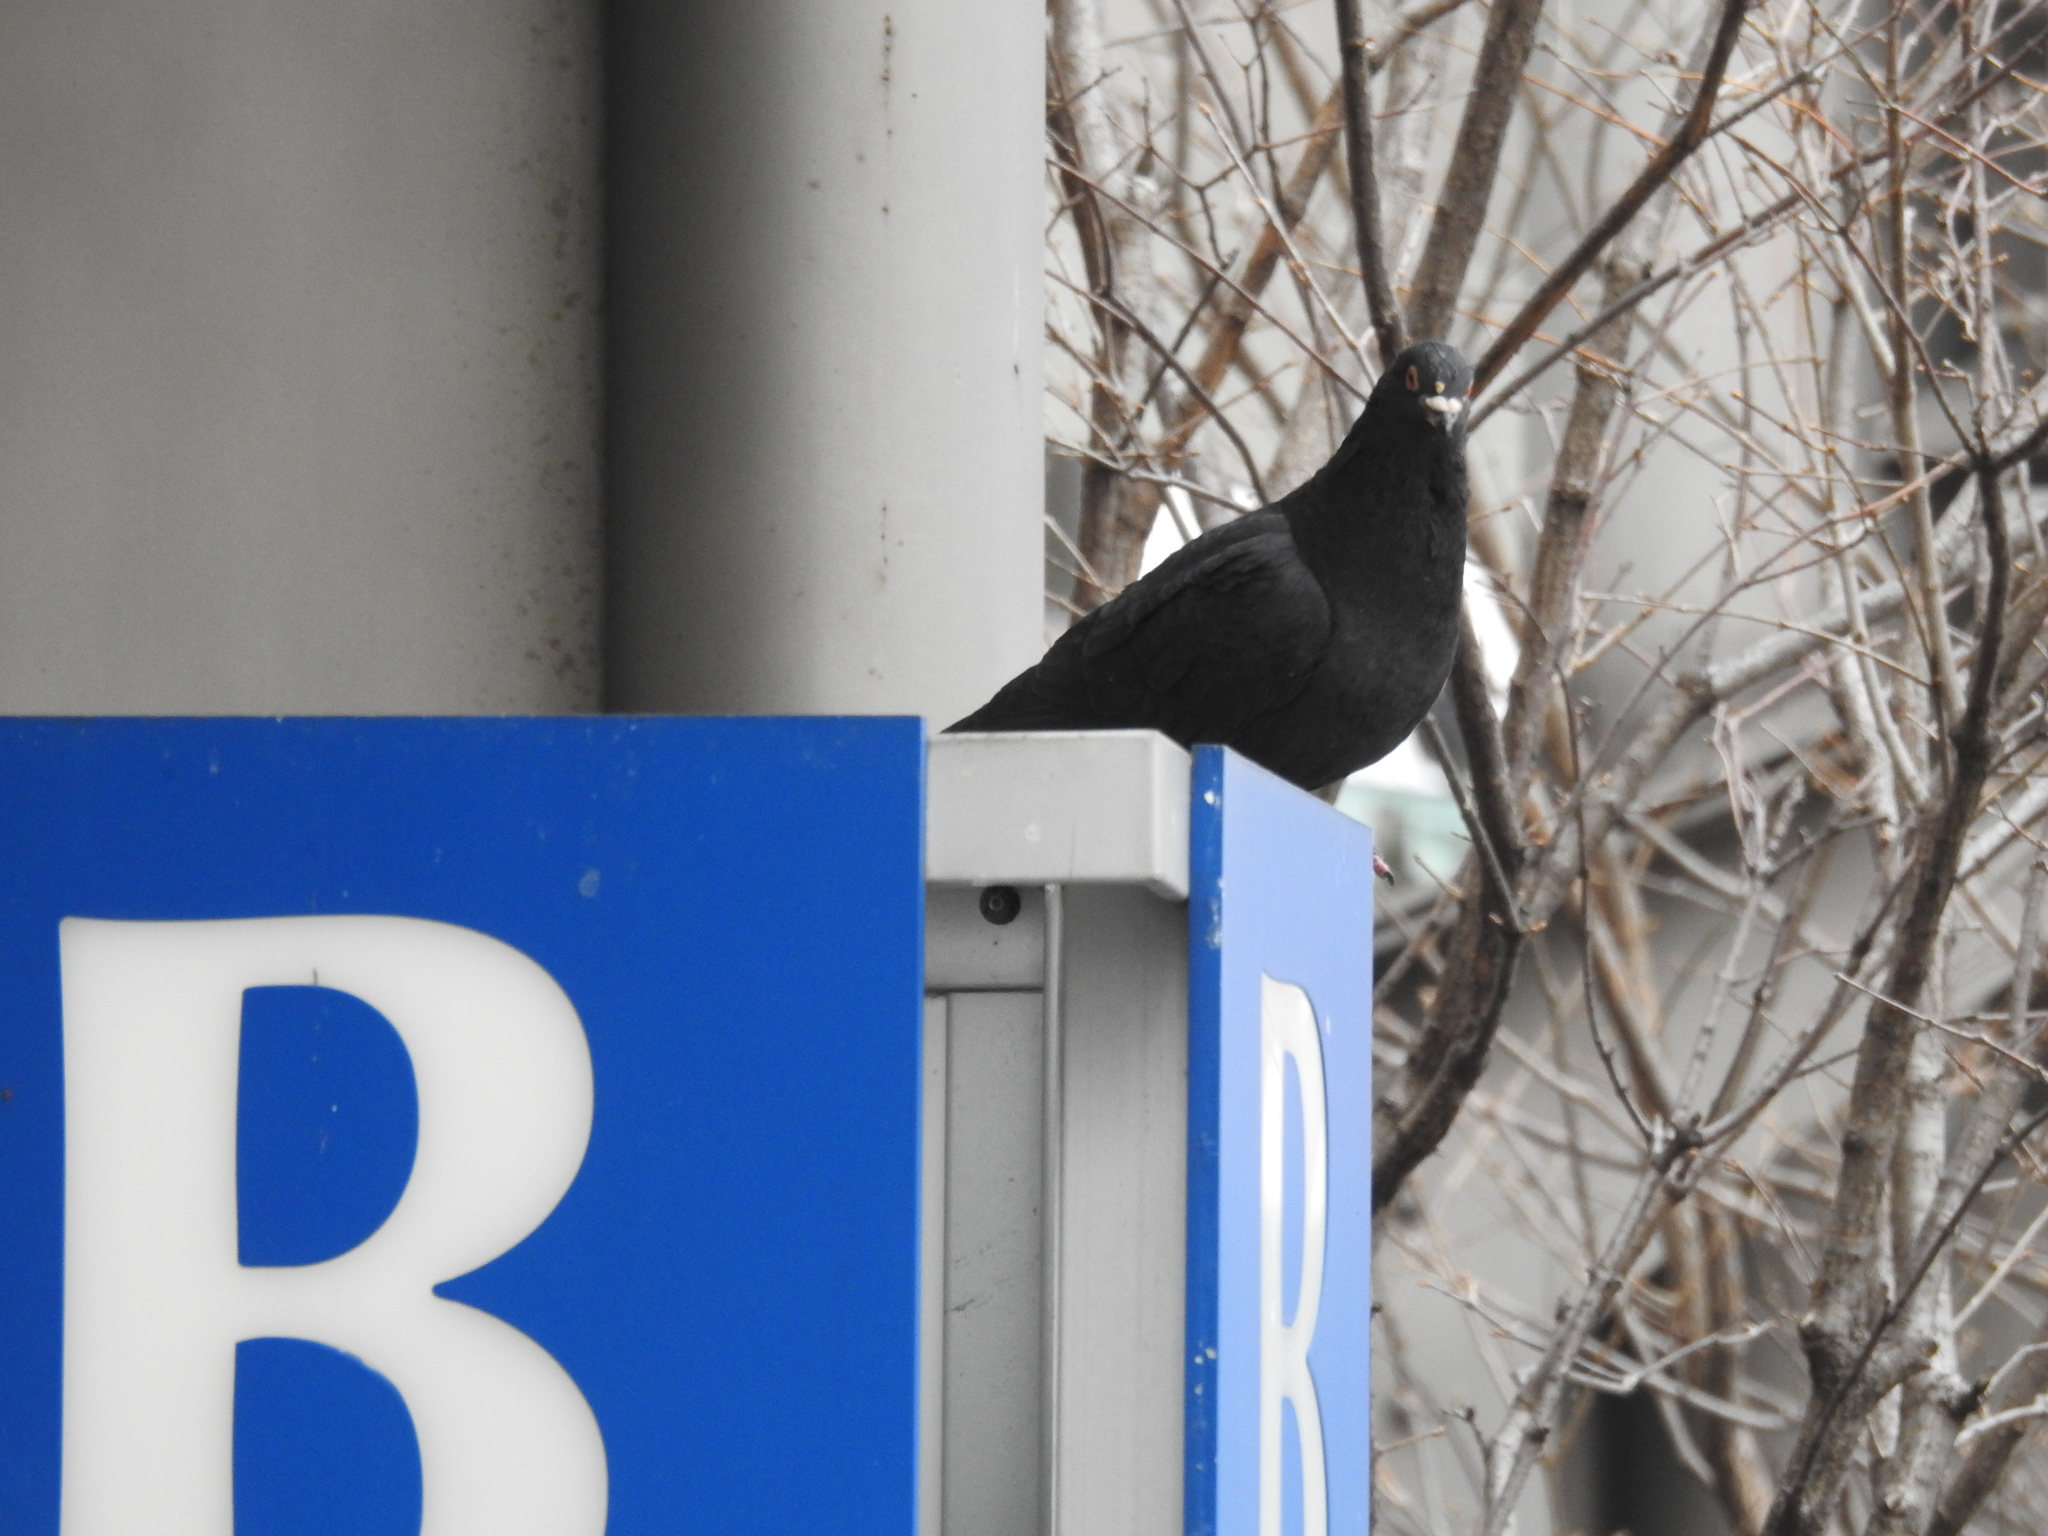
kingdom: Animalia
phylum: Chordata
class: Aves
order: Columbiformes
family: Columbidae
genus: Columba
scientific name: Columba livia
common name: Rock pigeon
